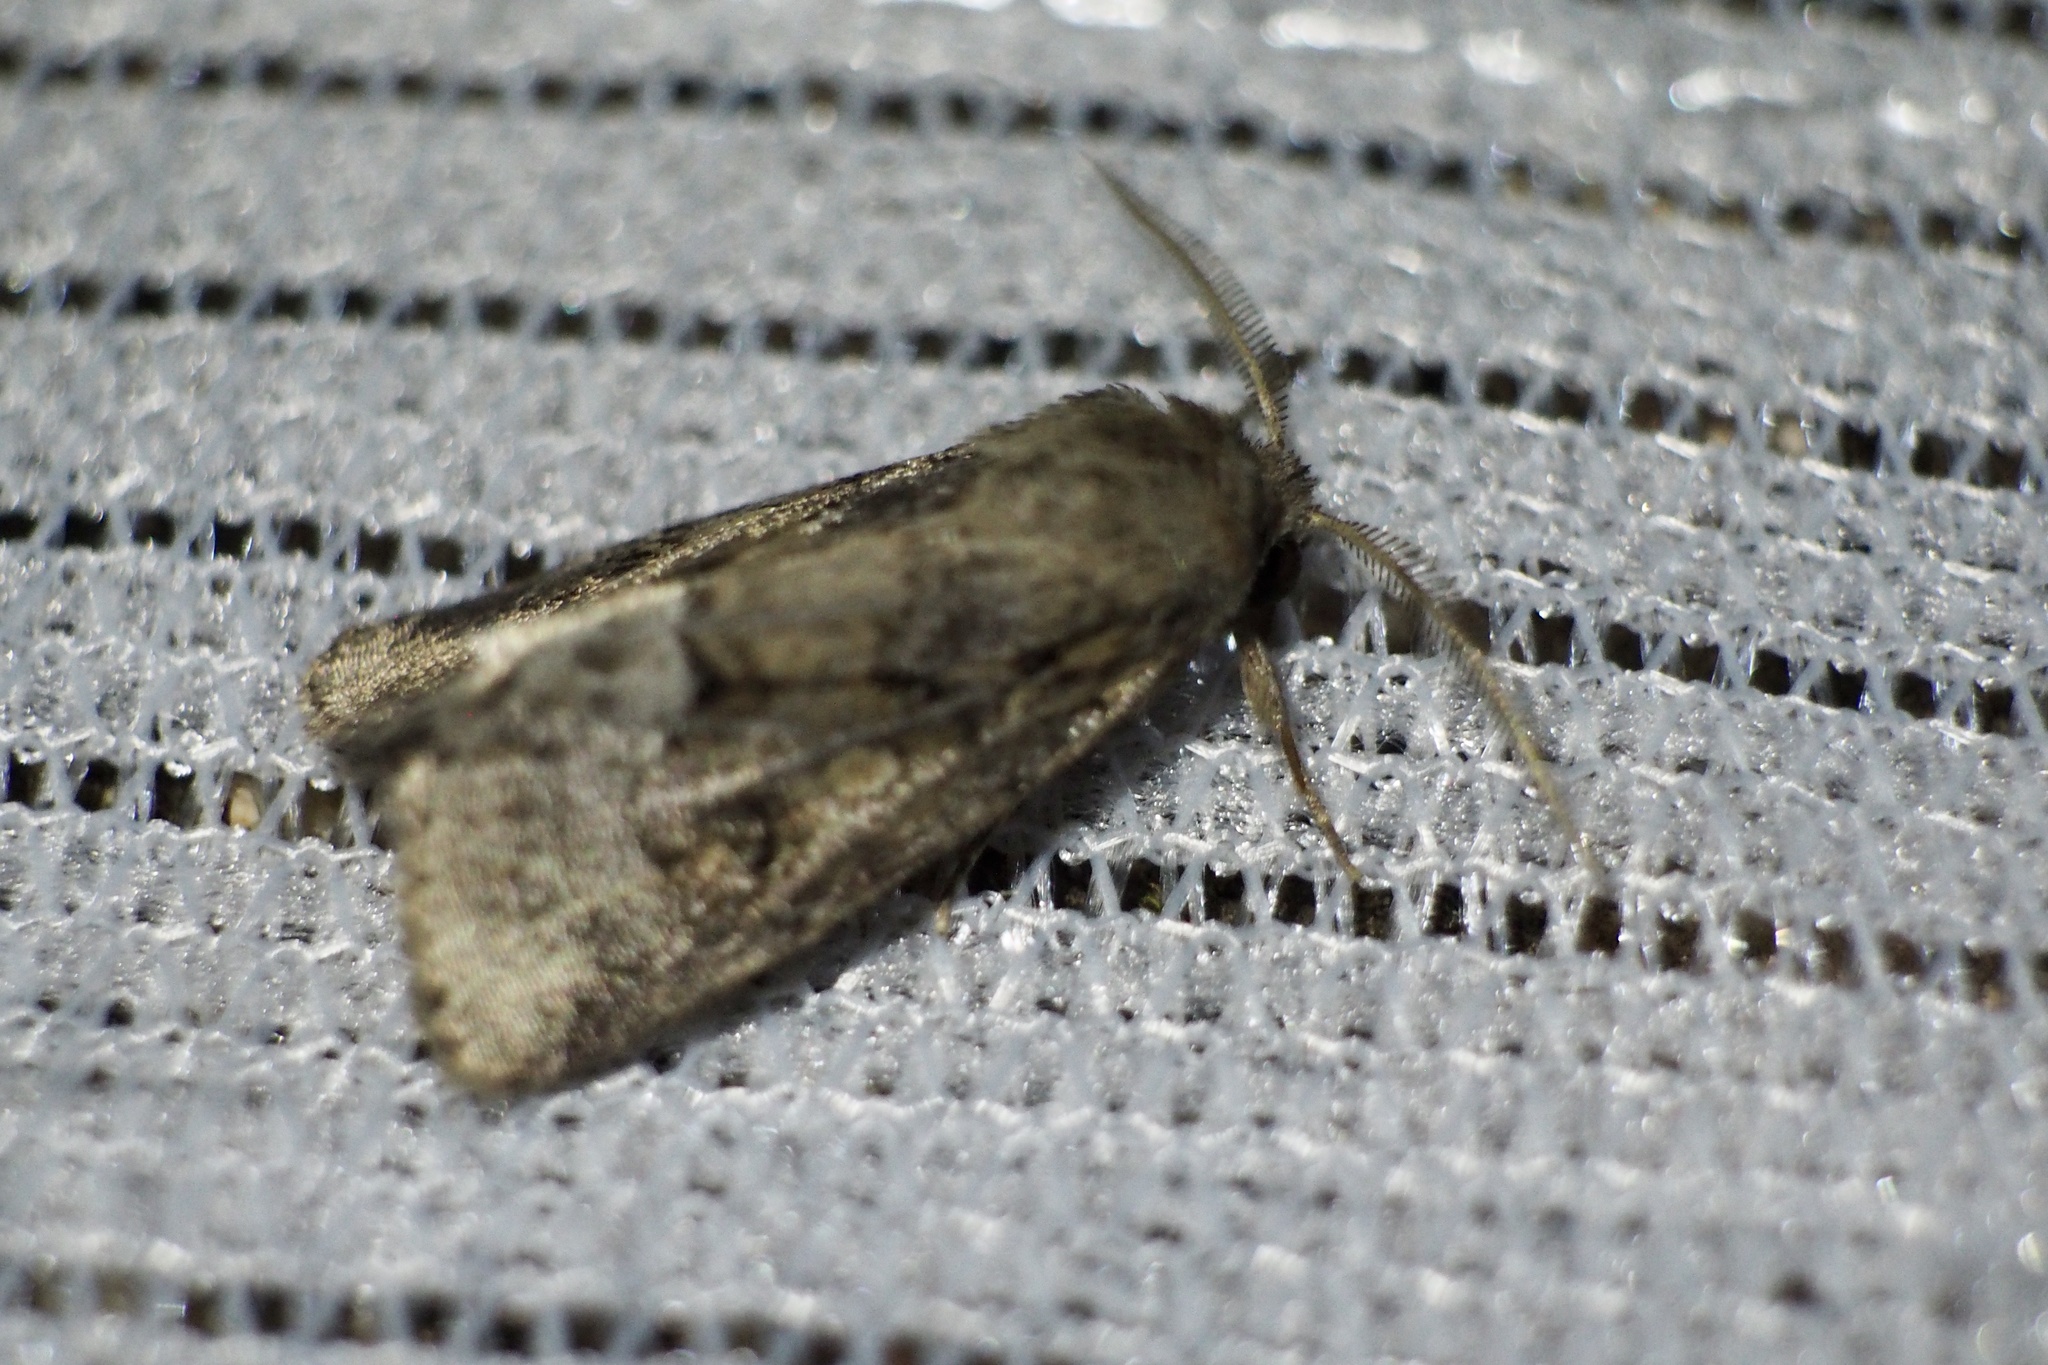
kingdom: Animalia
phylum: Arthropoda
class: Insecta
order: Lepidoptera
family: Noctuidae
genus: Spodoptera
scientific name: Spodoptera depravata
